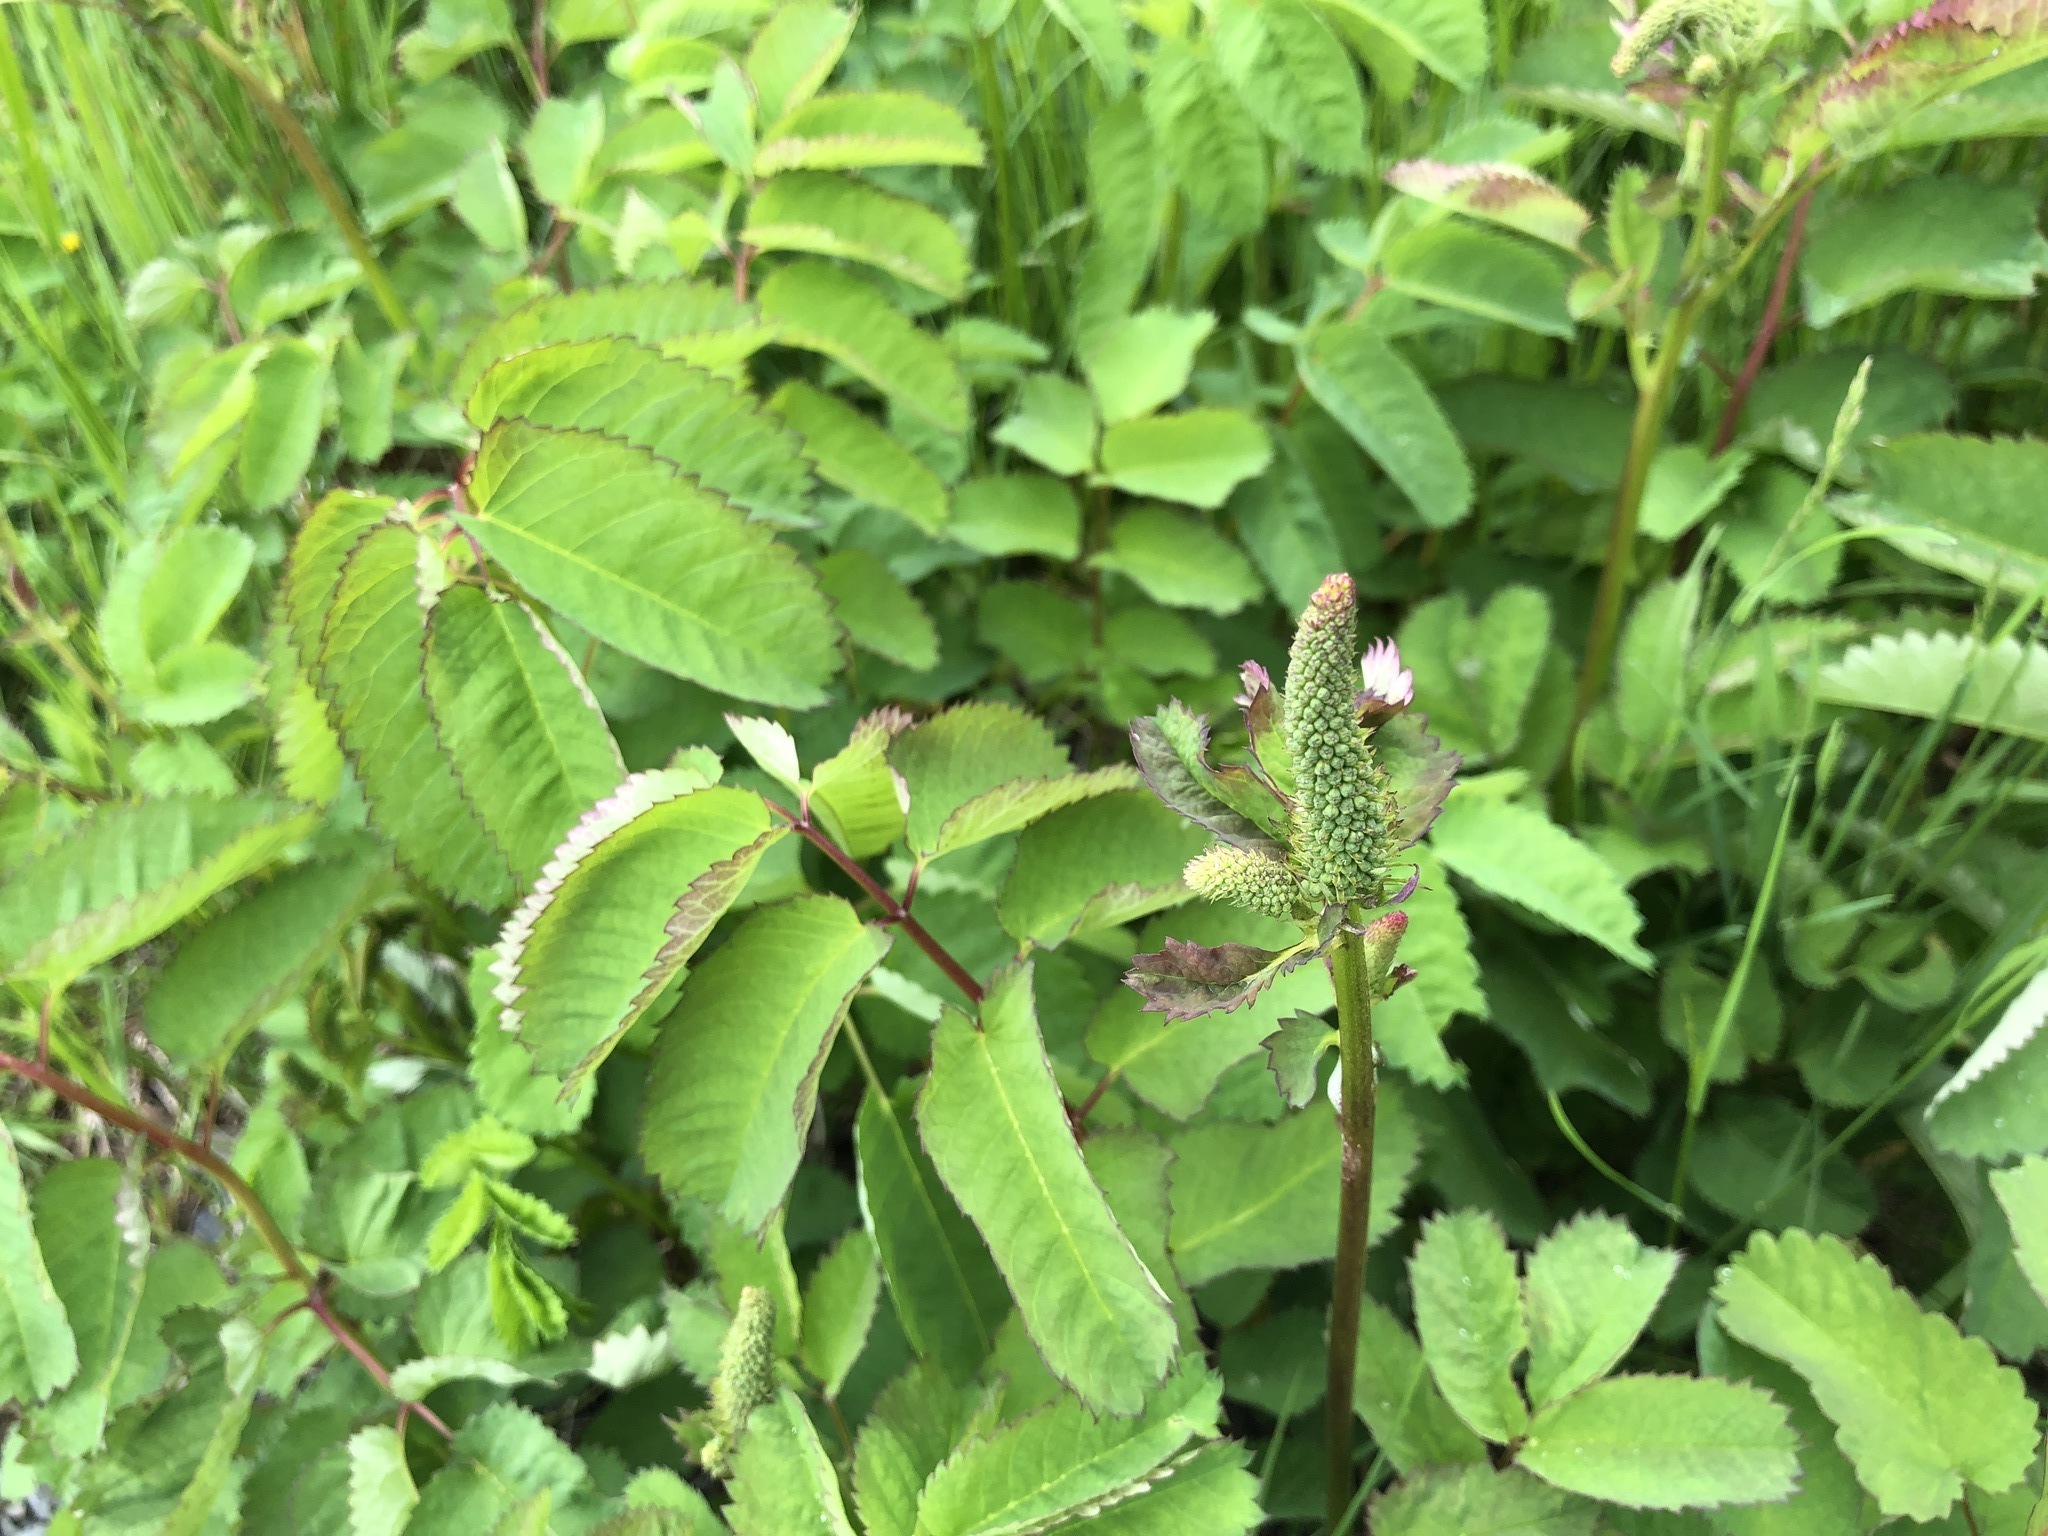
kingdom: Plantae
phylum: Tracheophyta
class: Magnoliopsida
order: Rosales
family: Rosaceae
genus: Sanguisorba
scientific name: Sanguisorba stipulata
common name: Sitka burnet
